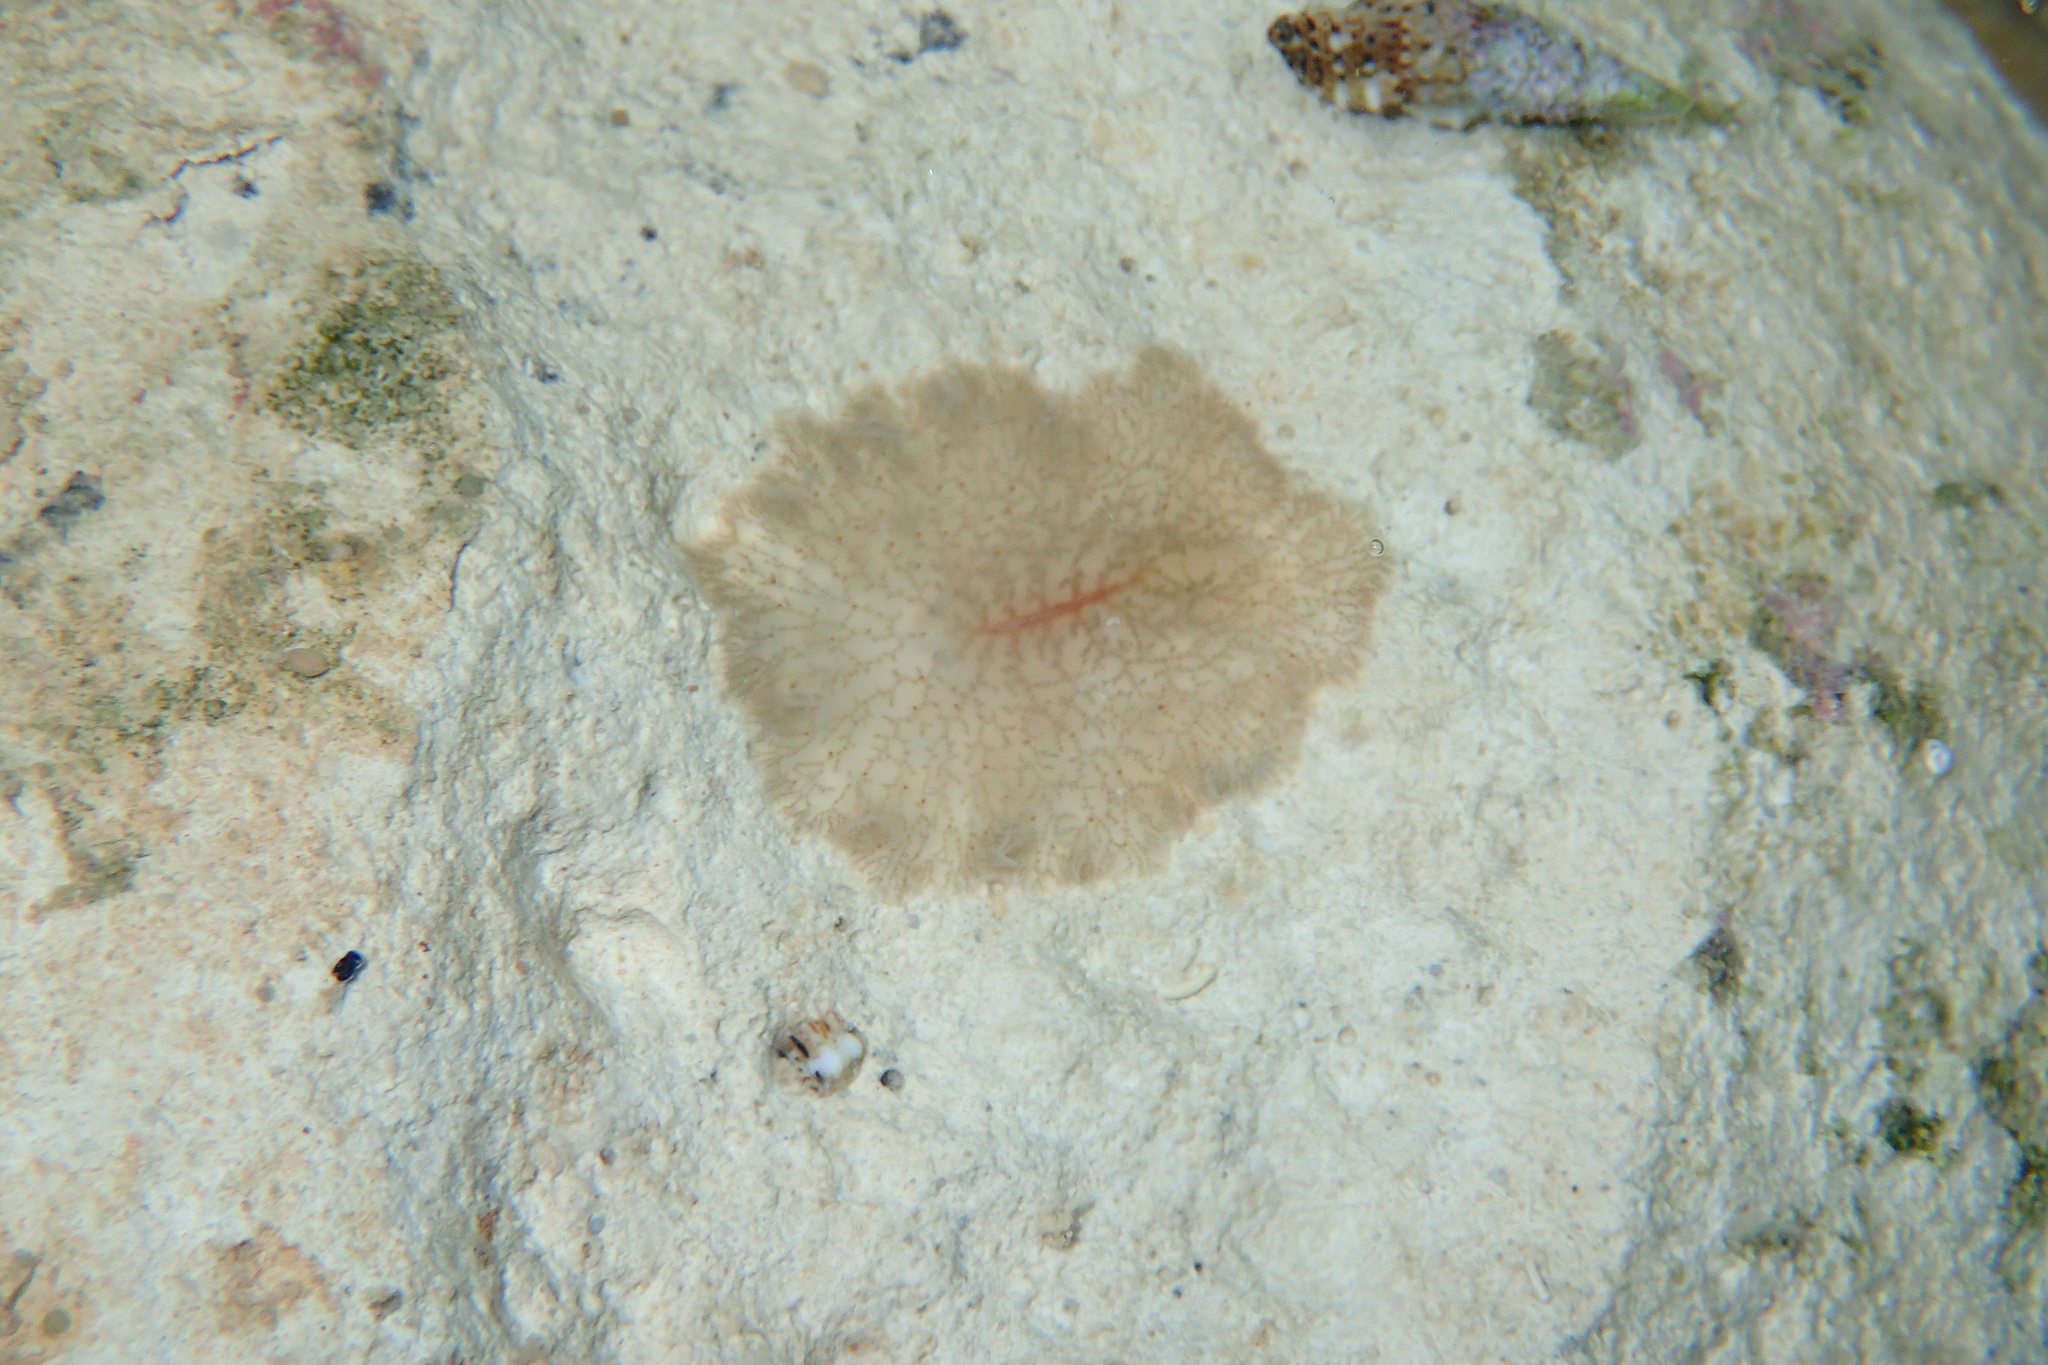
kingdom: Animalia
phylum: Platyhelminthes
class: Turbellaria
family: Planoceridae
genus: Planocera
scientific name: Planocera ceratommata
